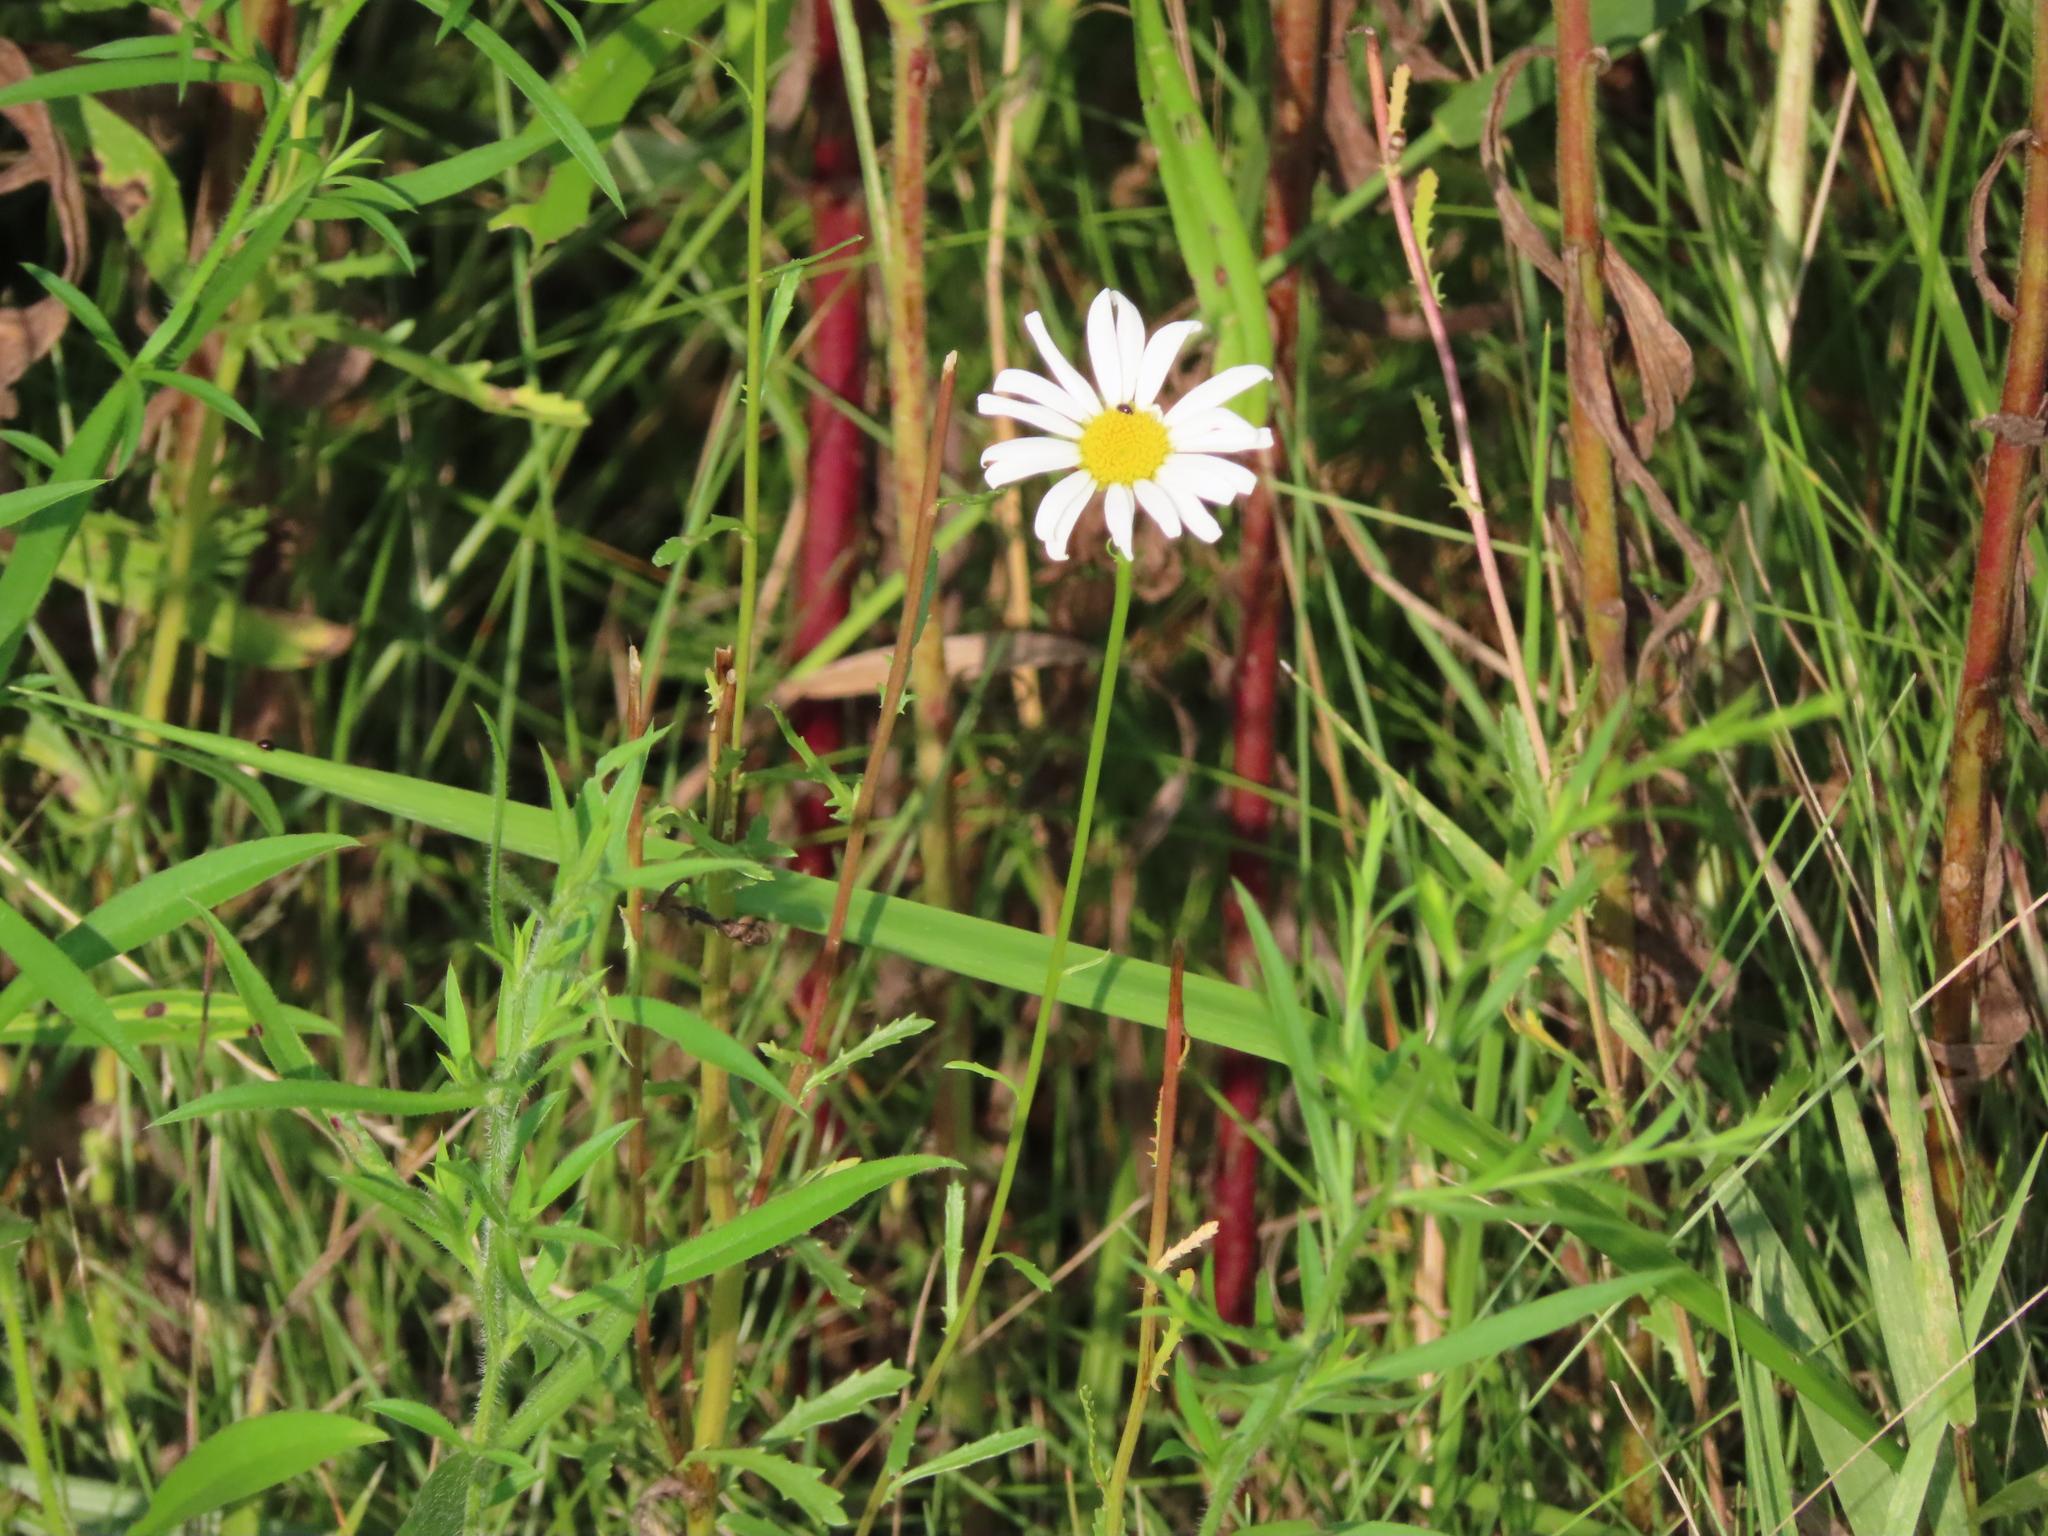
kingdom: Plantae
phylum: Tracheophyta
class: Magnoliopsida
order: Asterales
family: Asteraceae
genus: Leucanthemum
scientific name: Leucanthemum vulgare
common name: Oxeye daisy
